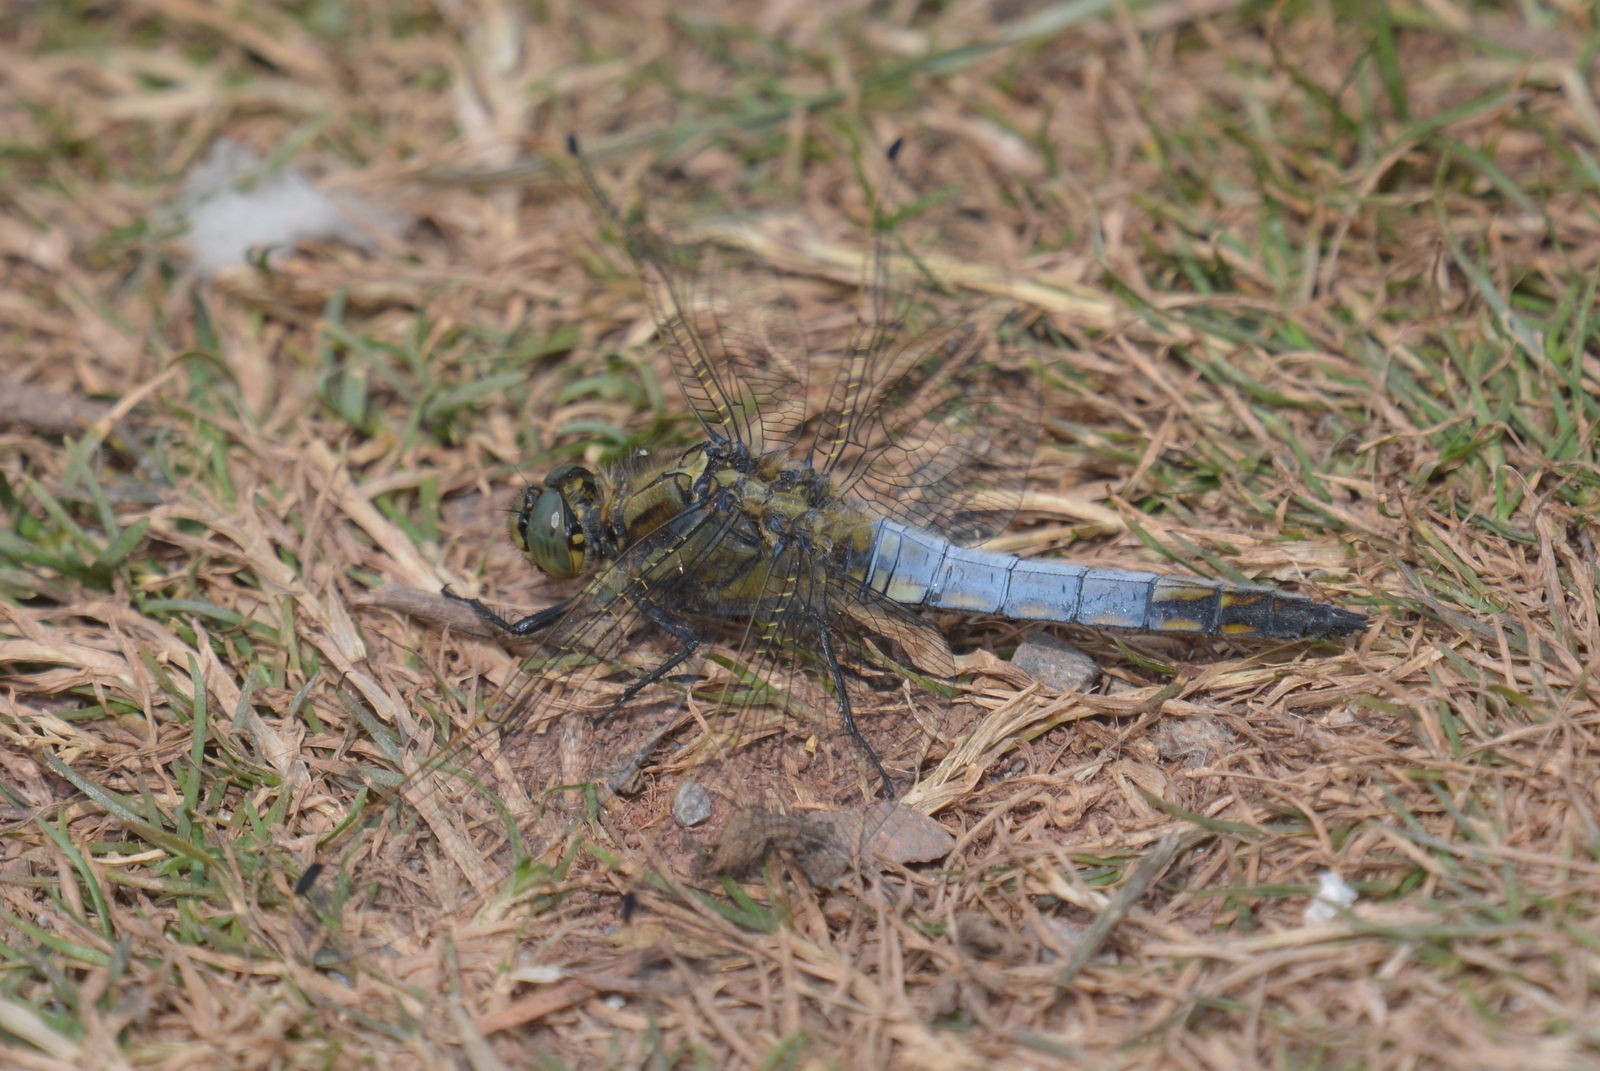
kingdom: Animalia
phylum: Arthropoda
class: Insecta
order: Odonata
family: Libellulidae
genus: Orthetrum
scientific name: Orthetrum cancellatum
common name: Black-tailed skimmer
